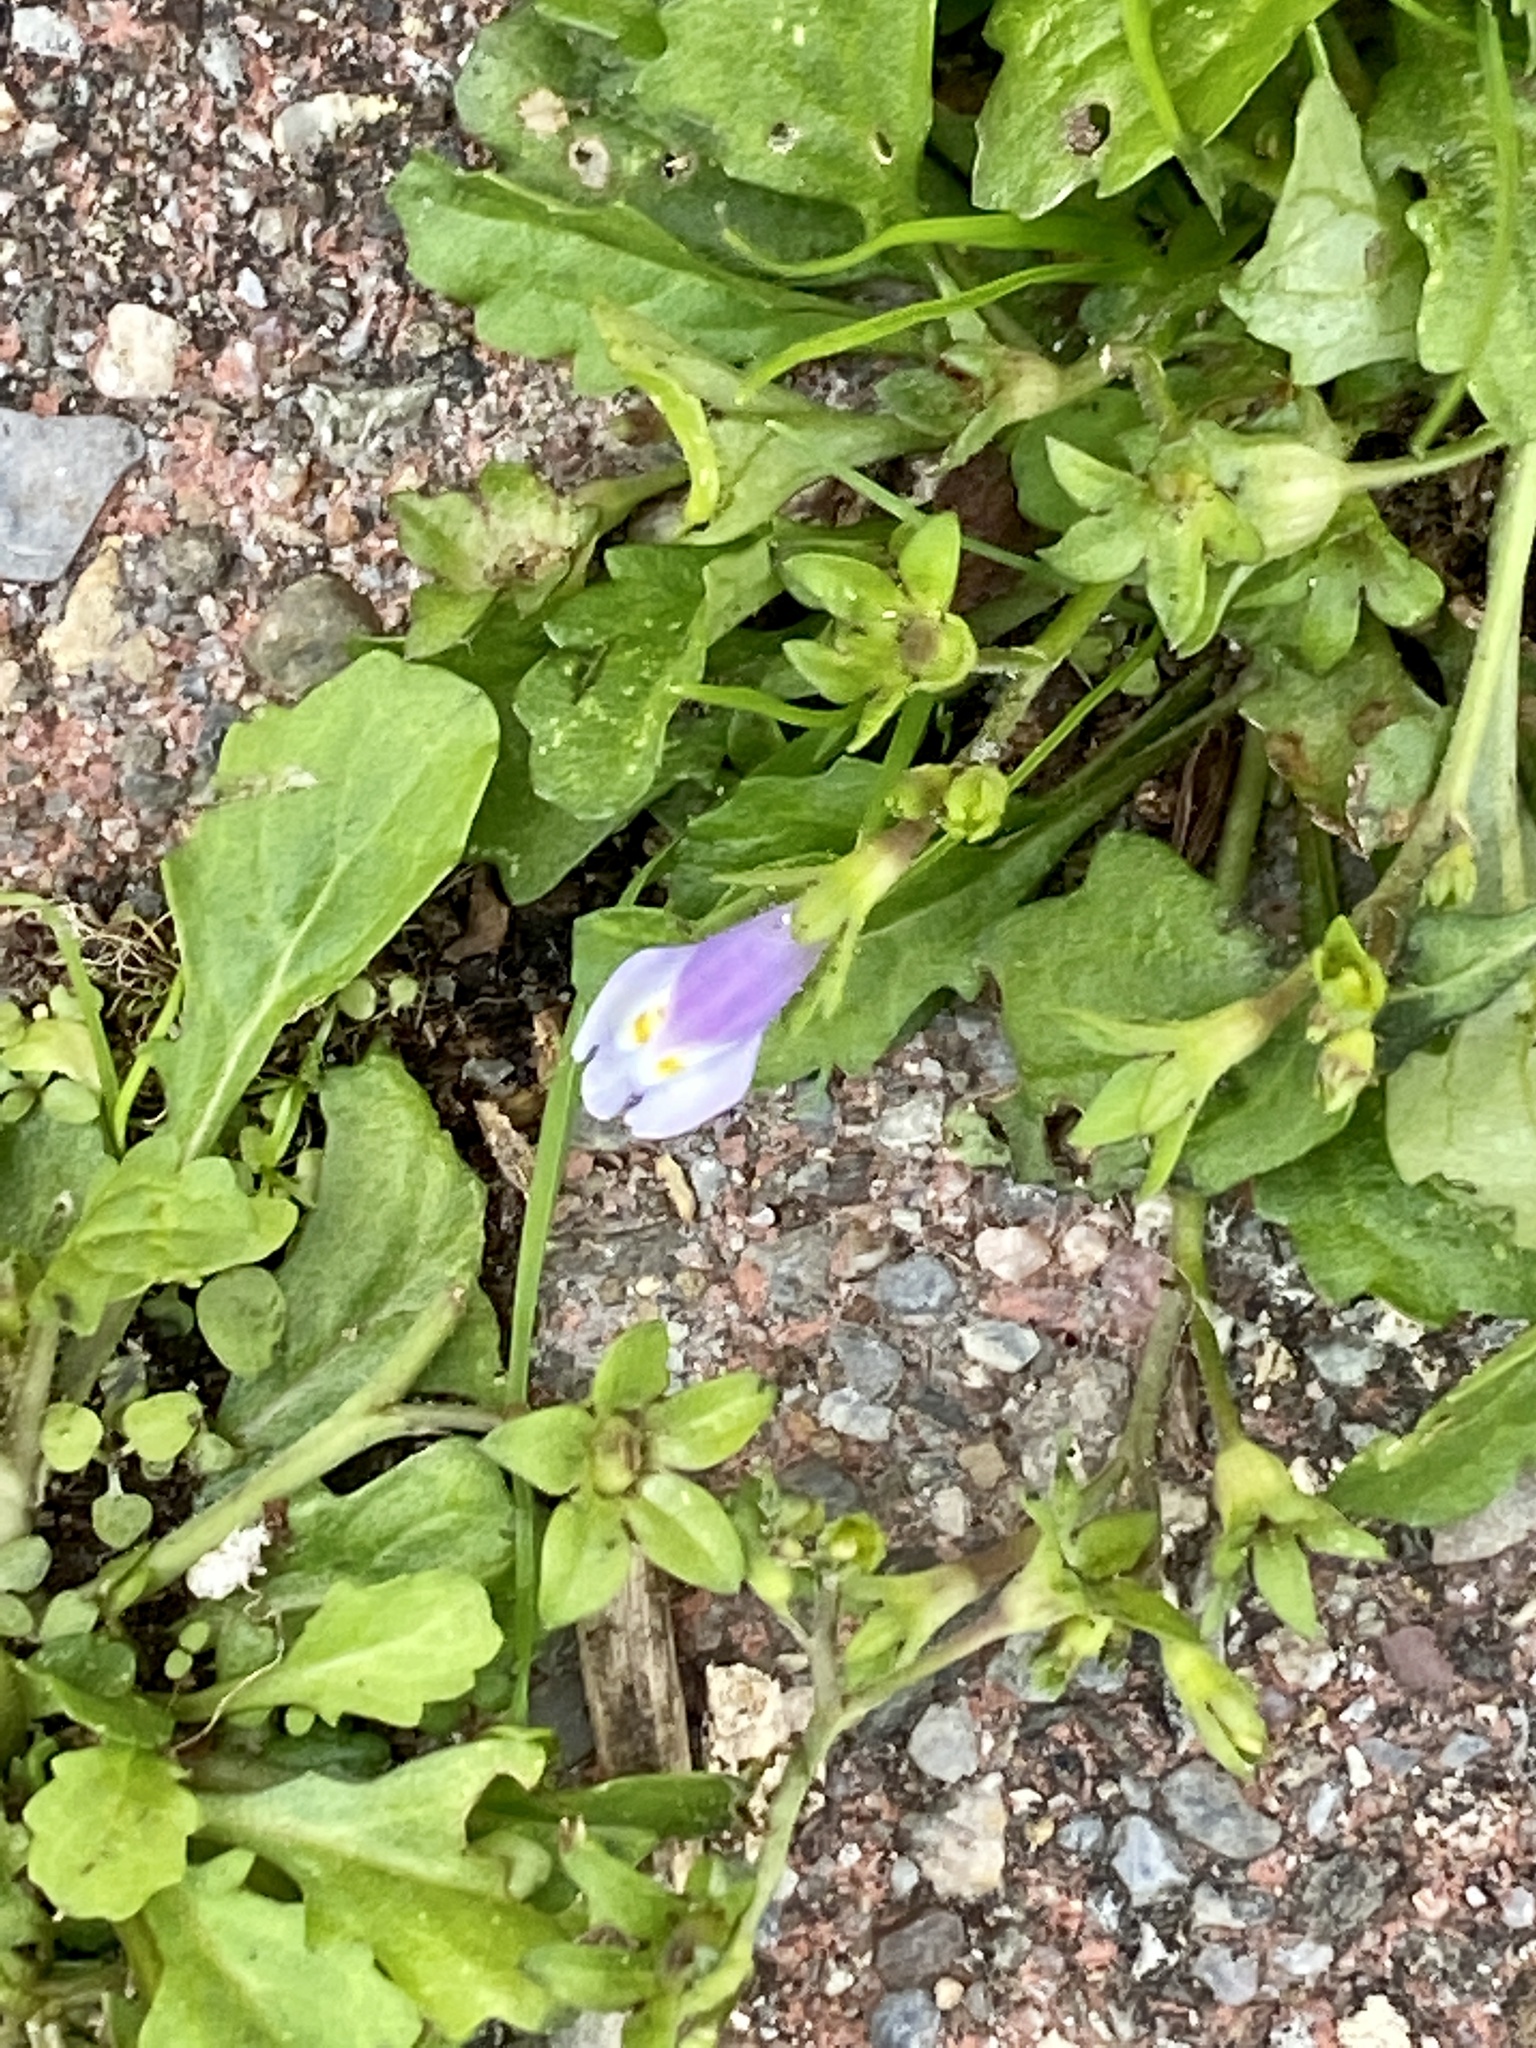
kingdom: Plantae
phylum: Tracheophyta
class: Magnoliopsida
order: Lamiales
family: Mazaceae
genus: Mazus
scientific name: Mazus pumilus
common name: Japanese mazus
